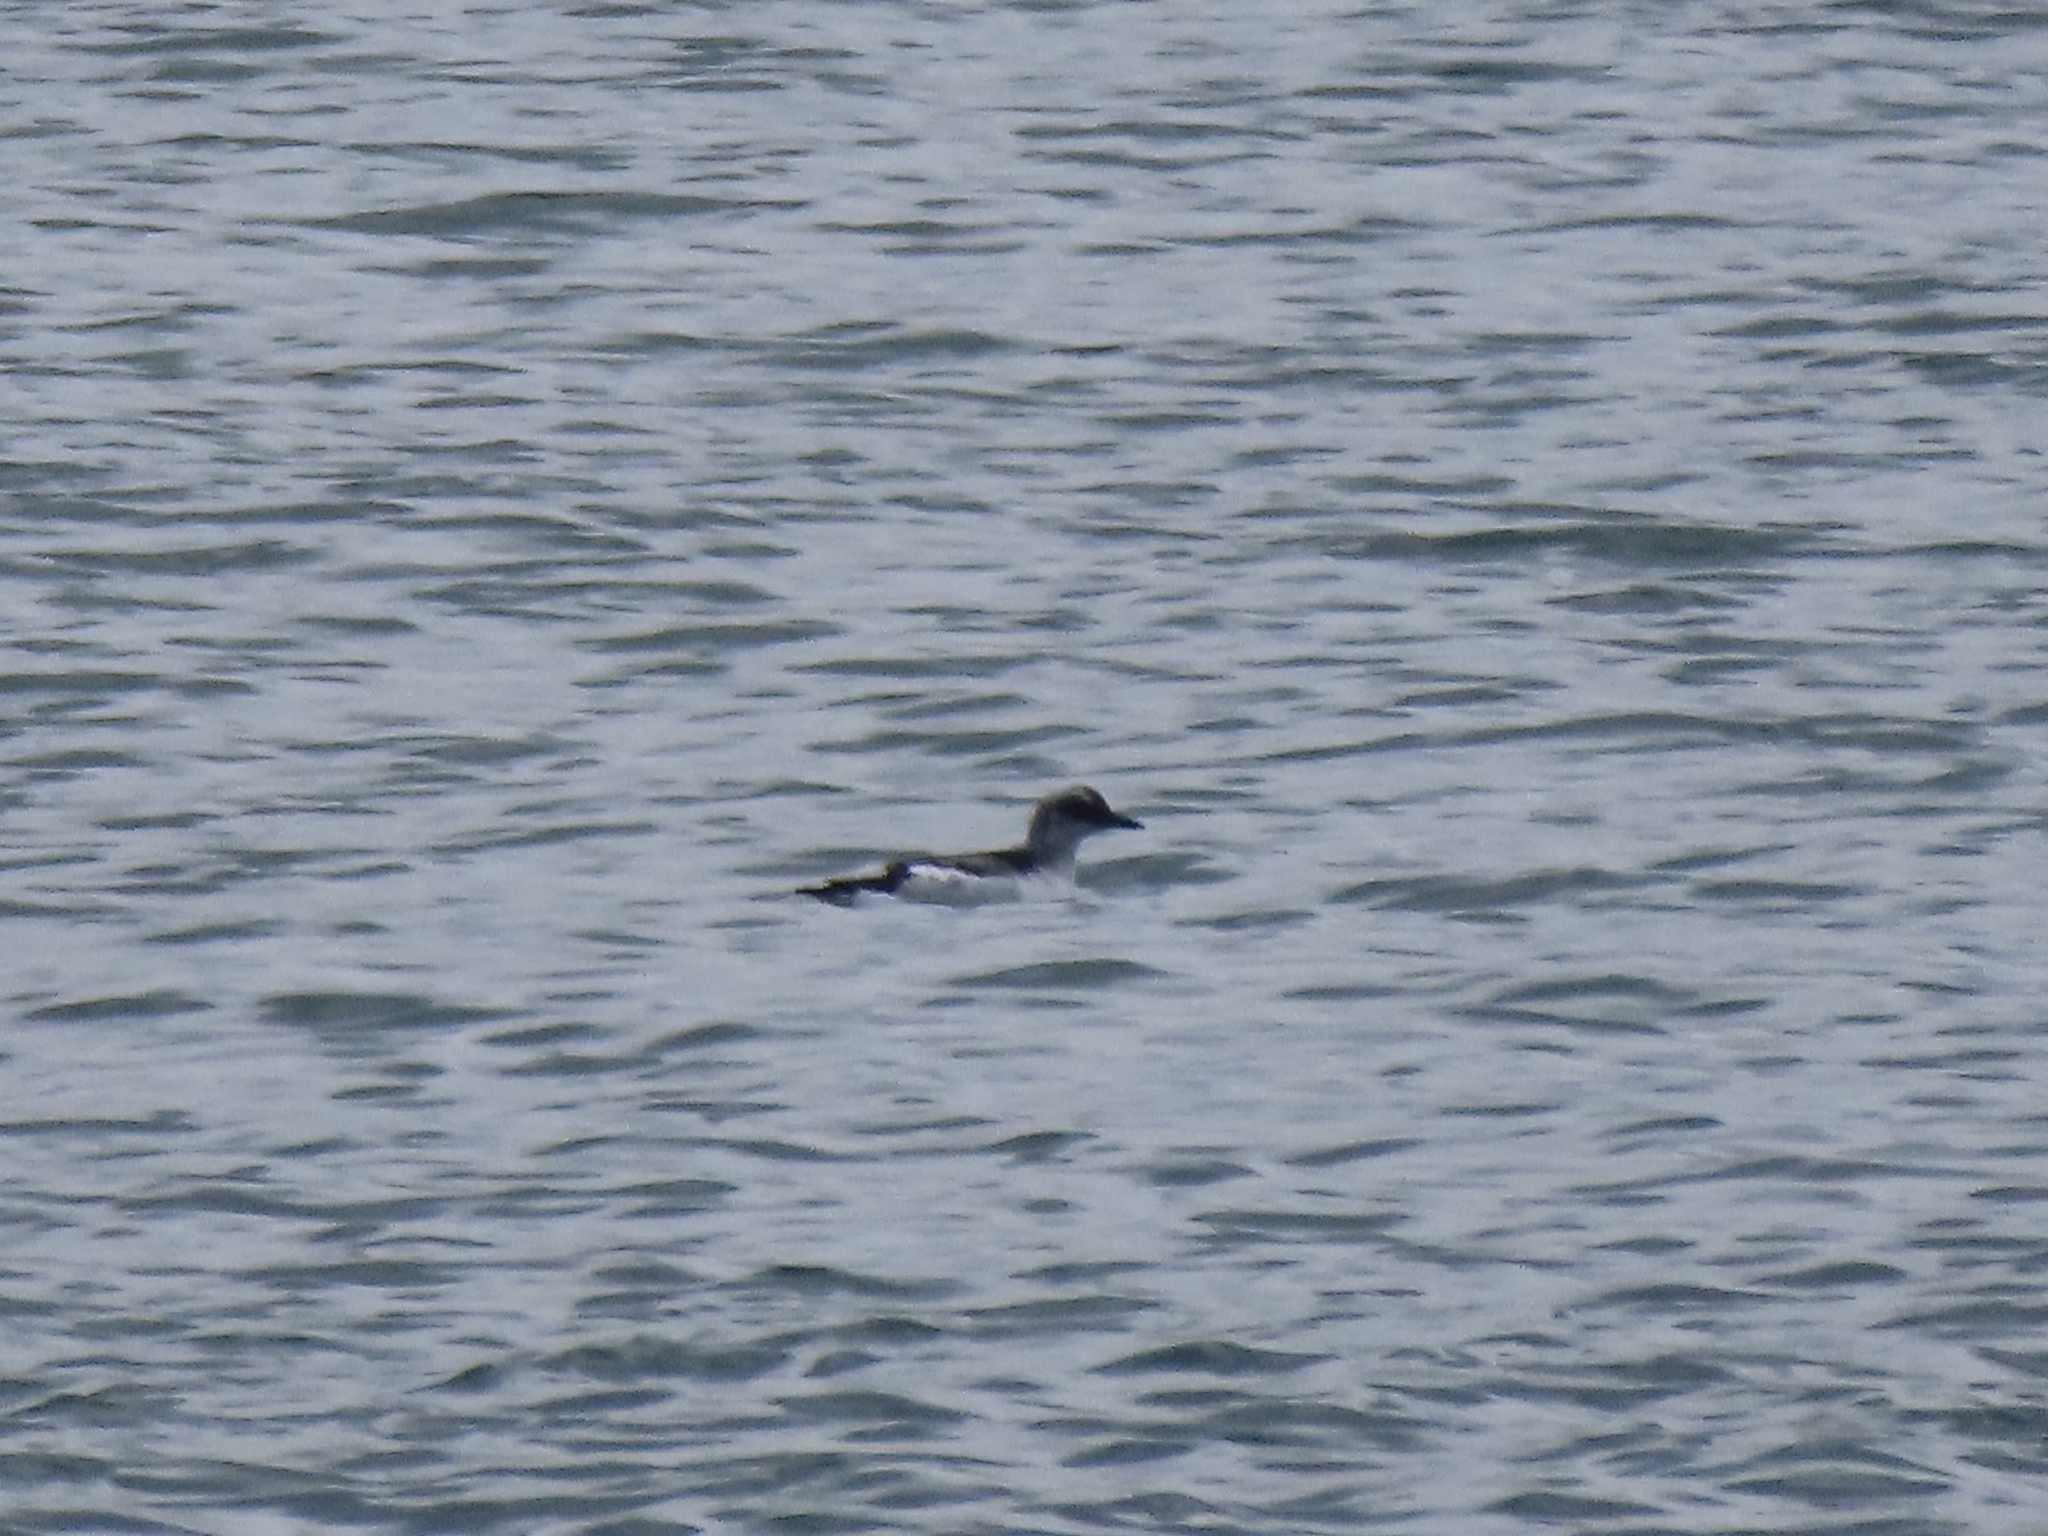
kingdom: Animalia
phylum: Chordata
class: Aves
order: Charadriiformes
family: Alcidae
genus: Cepphus
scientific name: Cepphus columba
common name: Pigeon guillemot
